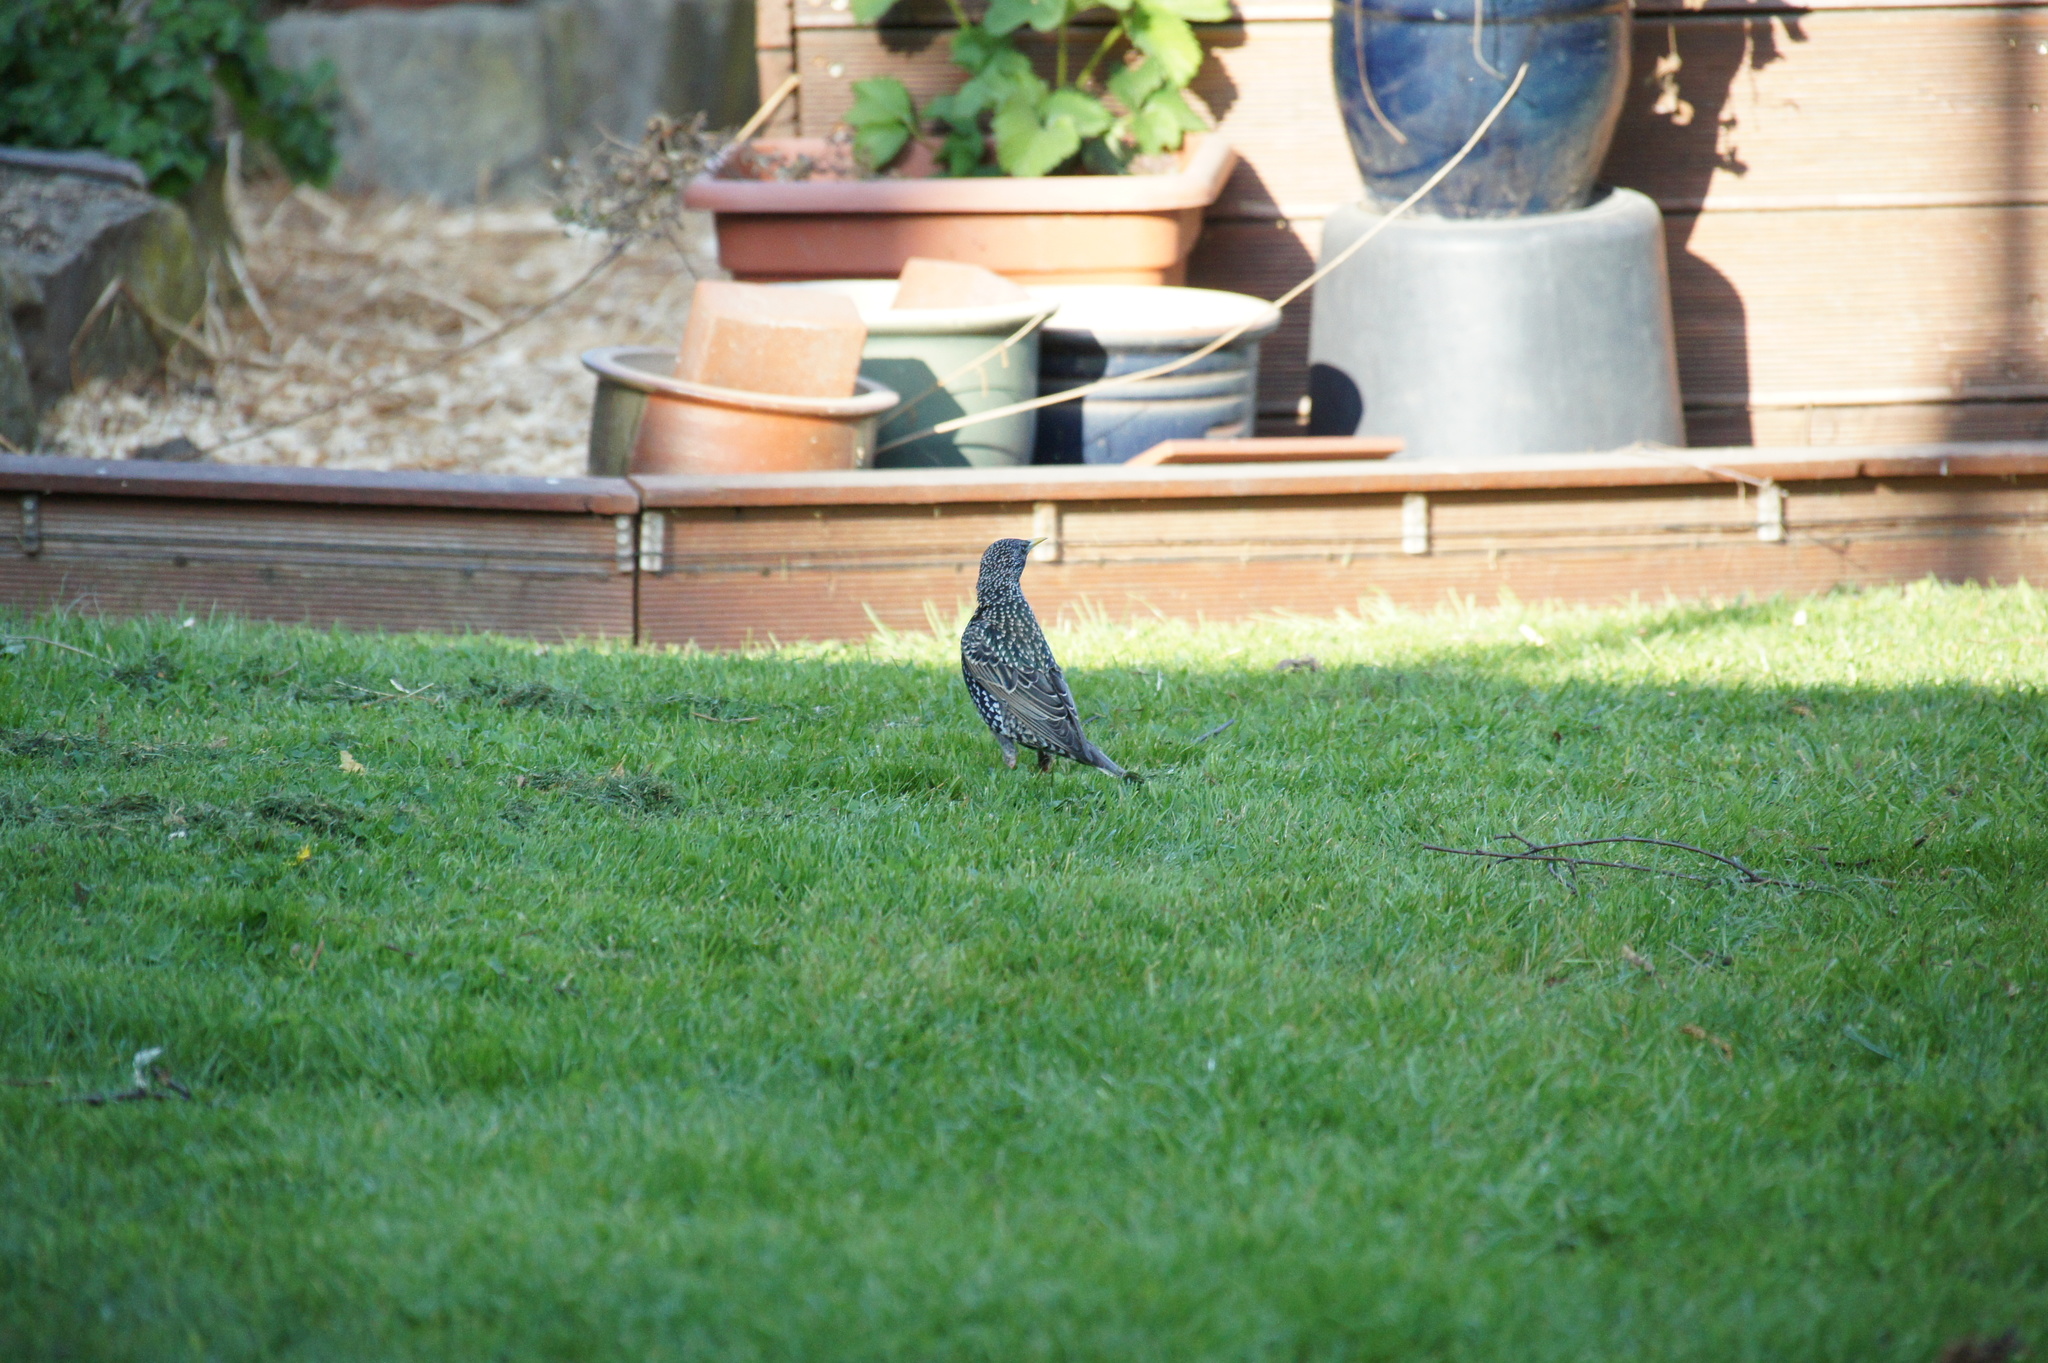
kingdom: Animalia
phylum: Chordata
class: Aves
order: Passeriformes
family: Sturnidae
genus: Sturnus
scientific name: Sturnus vulgaris
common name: Common starling
